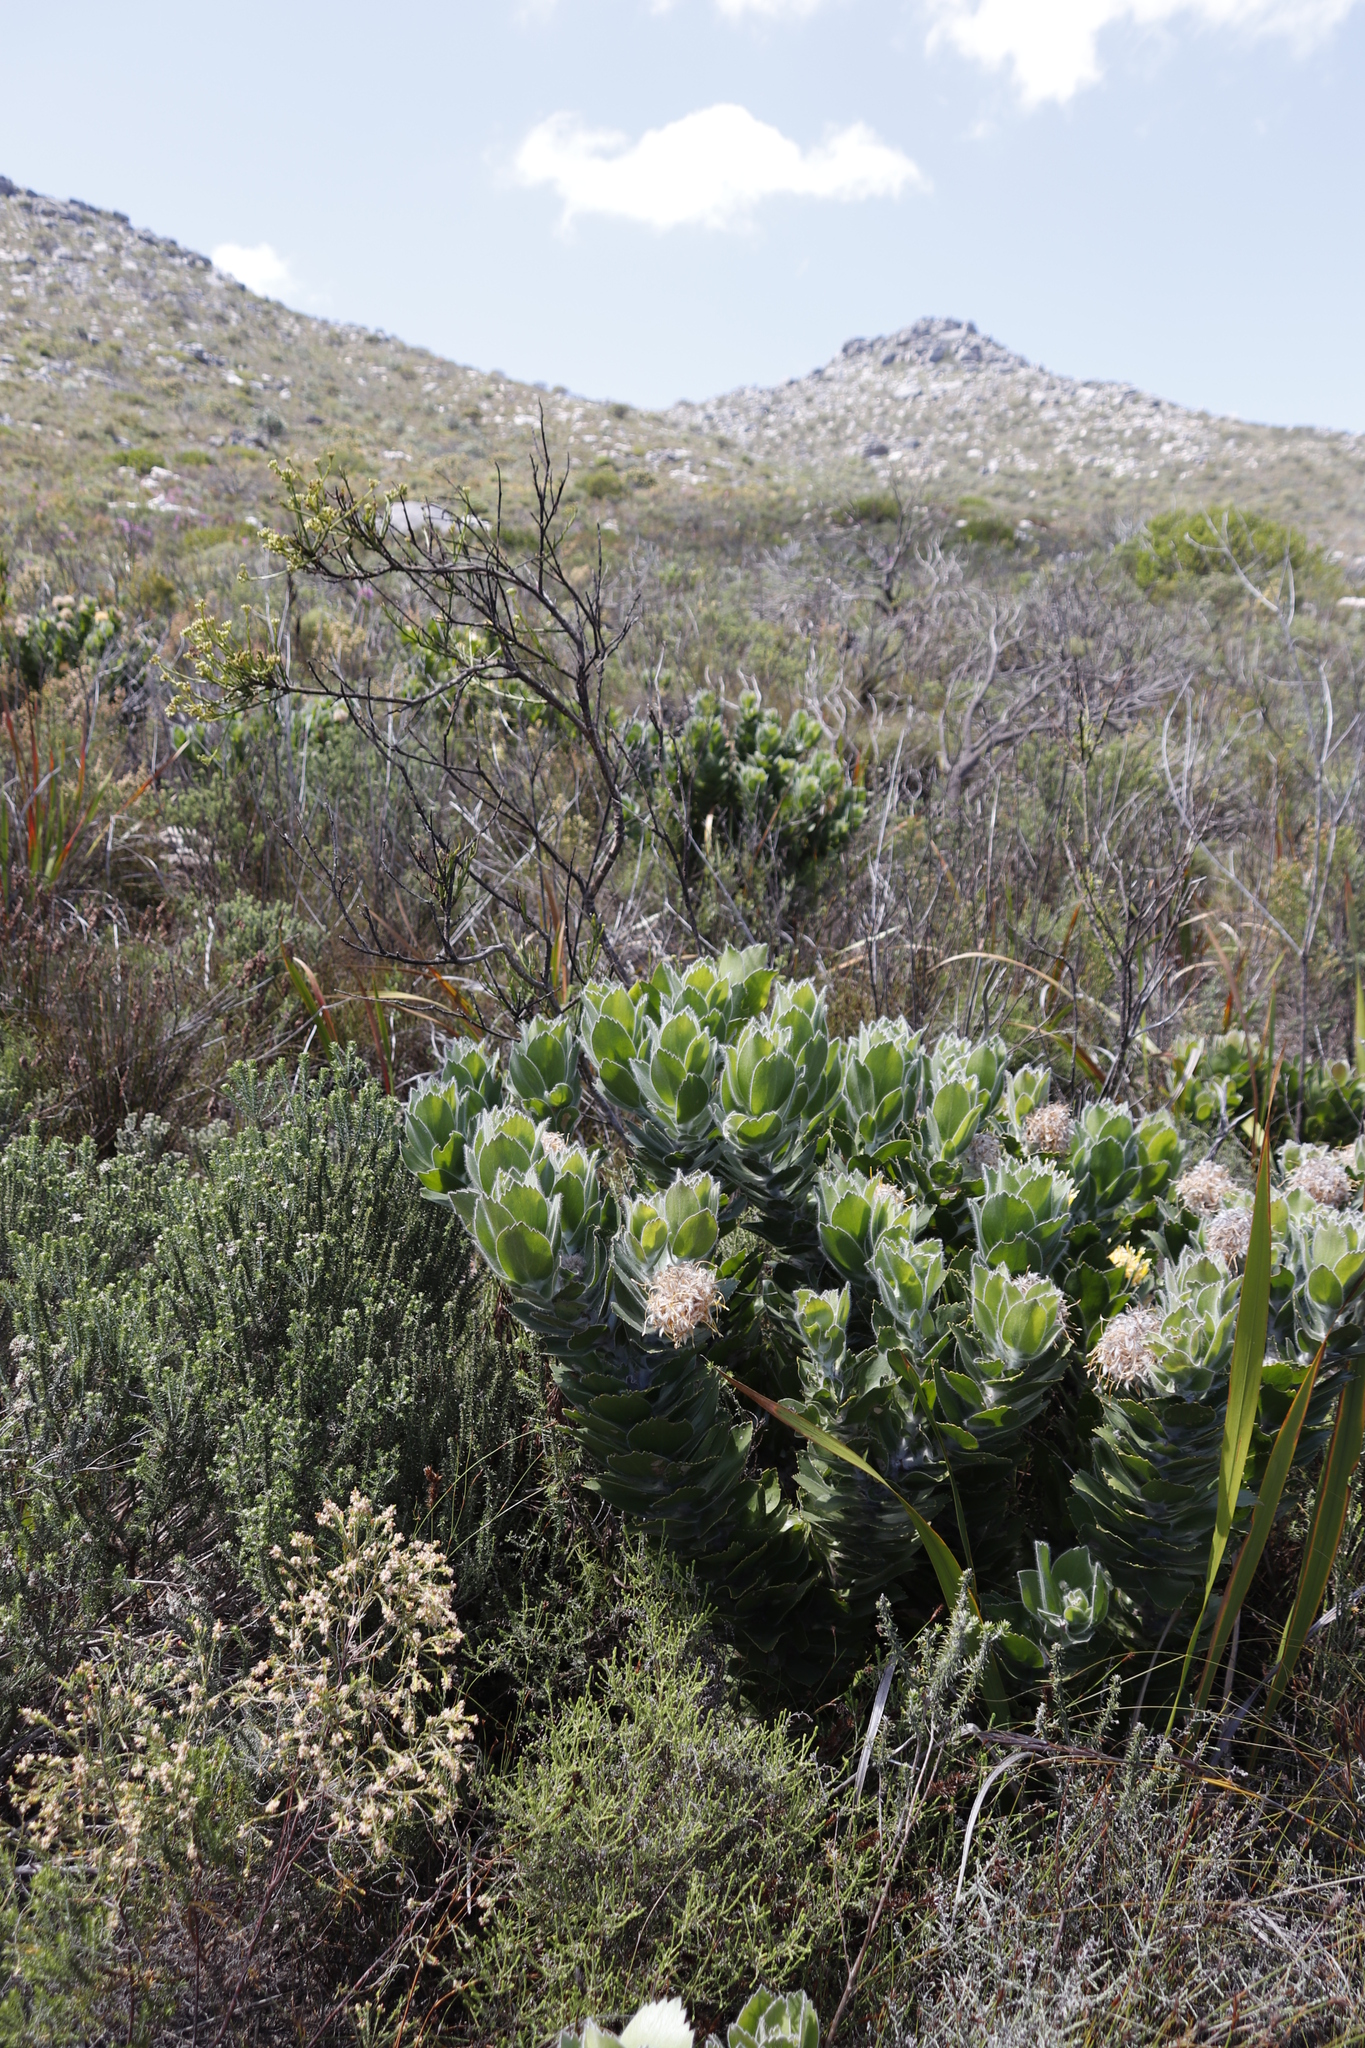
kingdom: Plantae
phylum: Tracheophyta
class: Magnoliopsida
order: Proteales
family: Proteaceae
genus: Leucospermum
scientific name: Leucospermum conocarpodendron
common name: Tree pincushion
